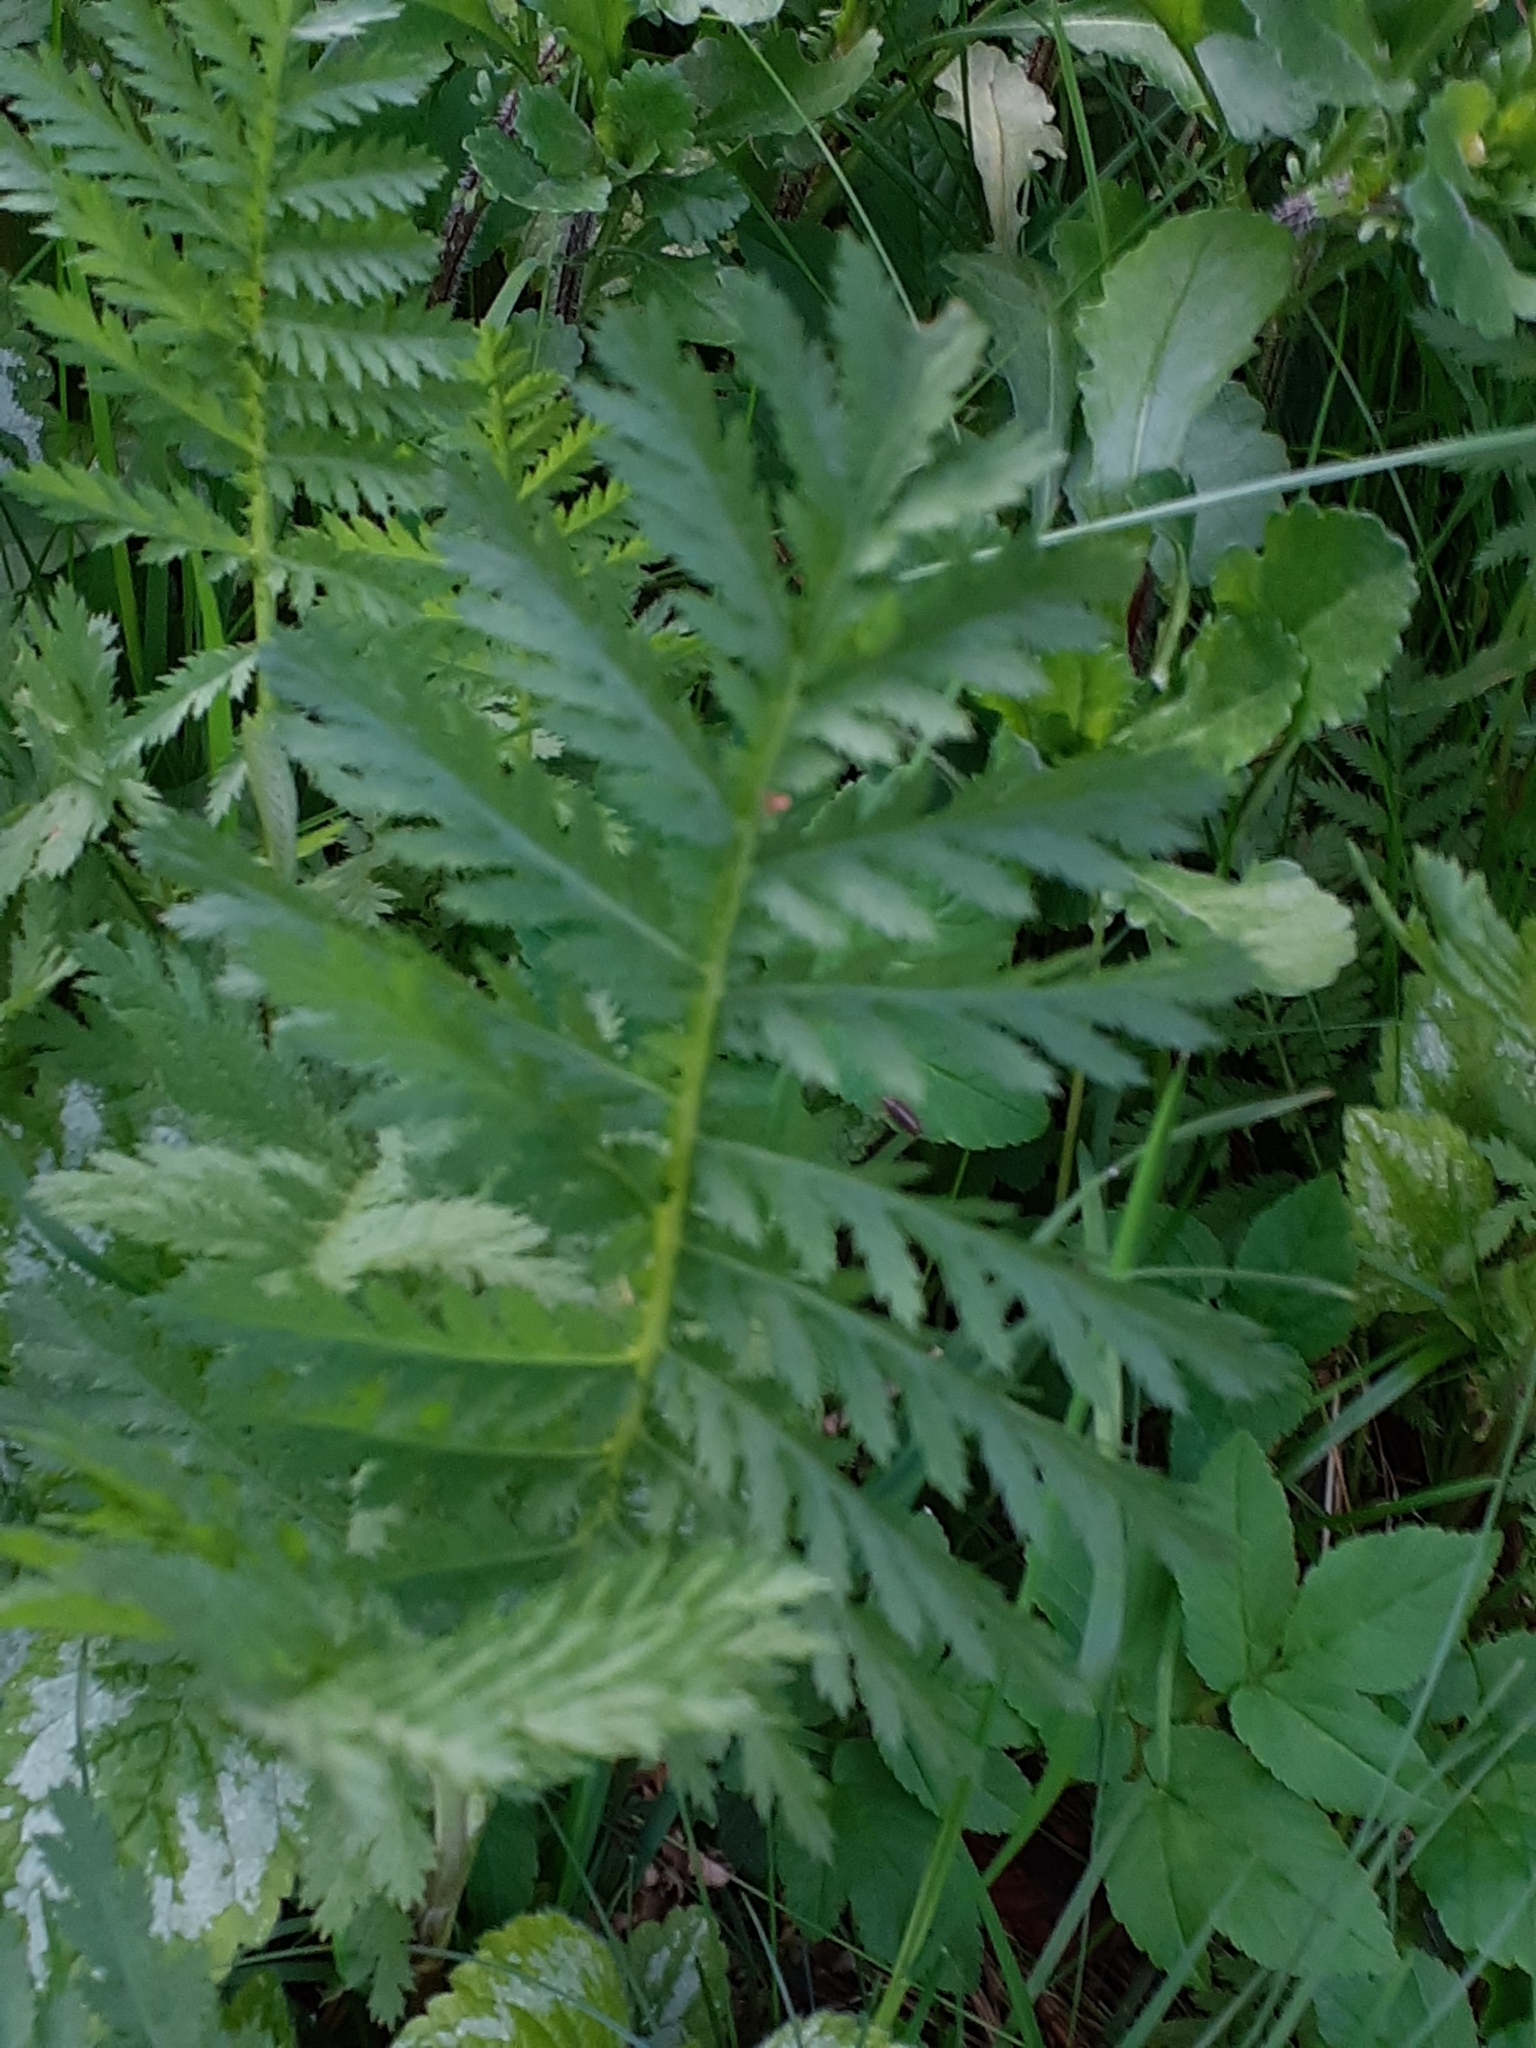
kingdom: Plantae
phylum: Tracheophyta
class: Magnoliopsida
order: Asterales
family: Asteraceae
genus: Tanacetum
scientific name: Tanacetum vulgare
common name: Common tansy
